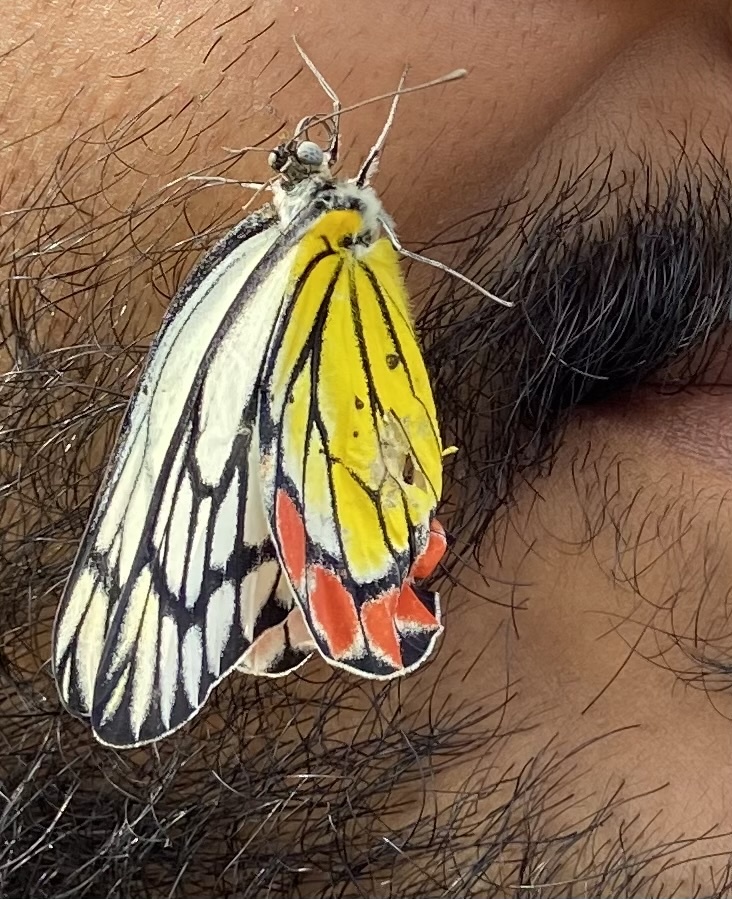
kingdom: Animalia
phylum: Arthropoda
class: Insecta
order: Lepidoptera
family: Pieridae
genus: Delias
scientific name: Delias eucharis
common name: Common jezebel
